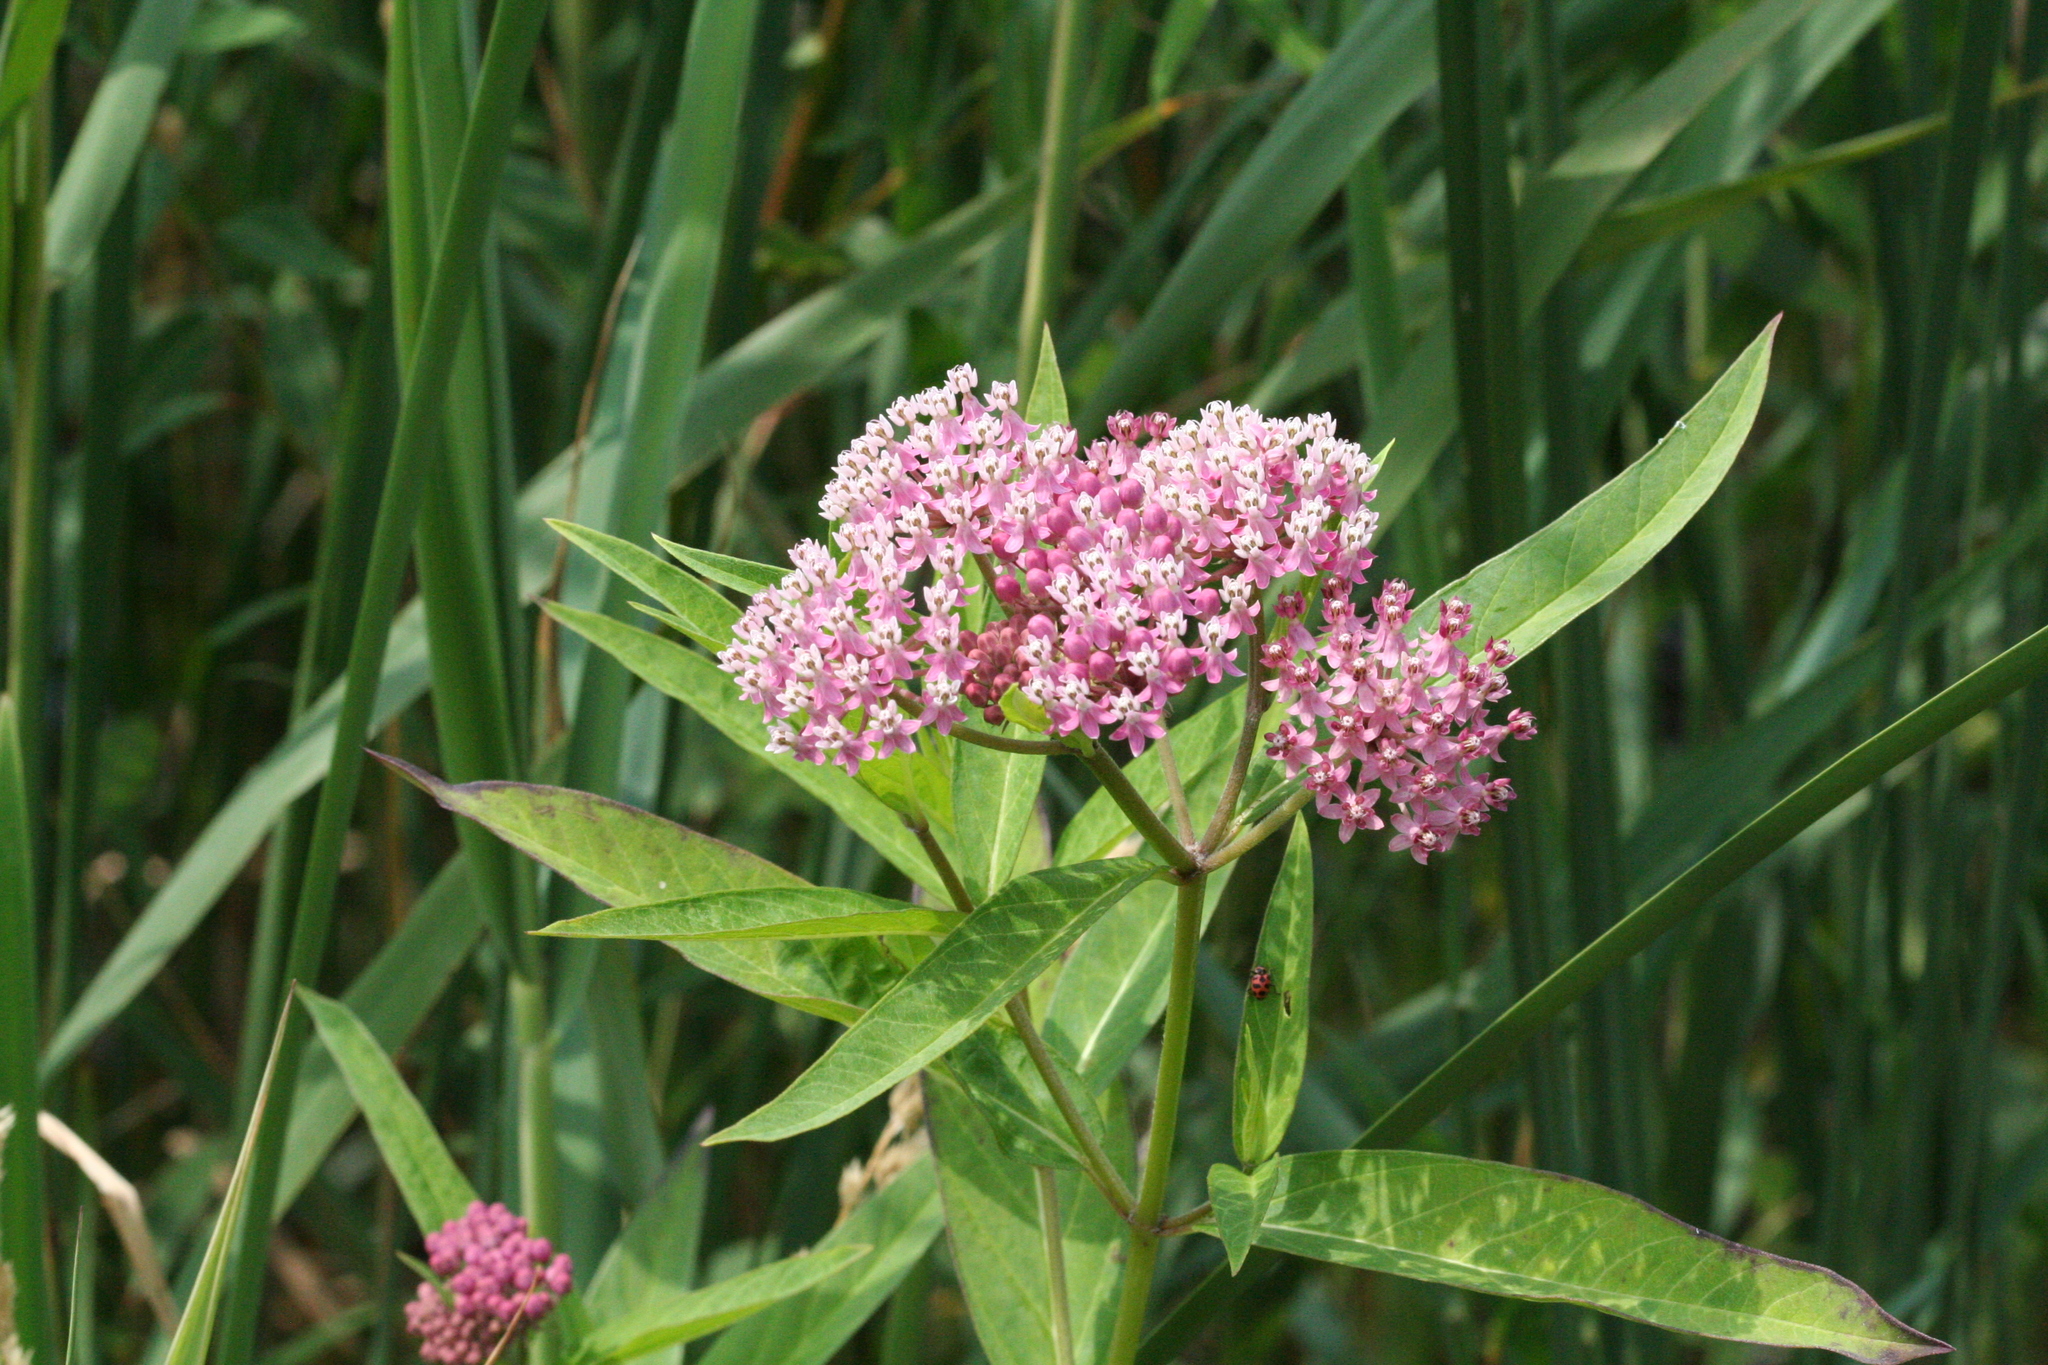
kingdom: Plantae
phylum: Tracheophyta
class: Magnoliopsida
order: Gentianales
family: Apocynaceae
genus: Asclepias
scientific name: Asclepias incarnata
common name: Swamp milkweed
